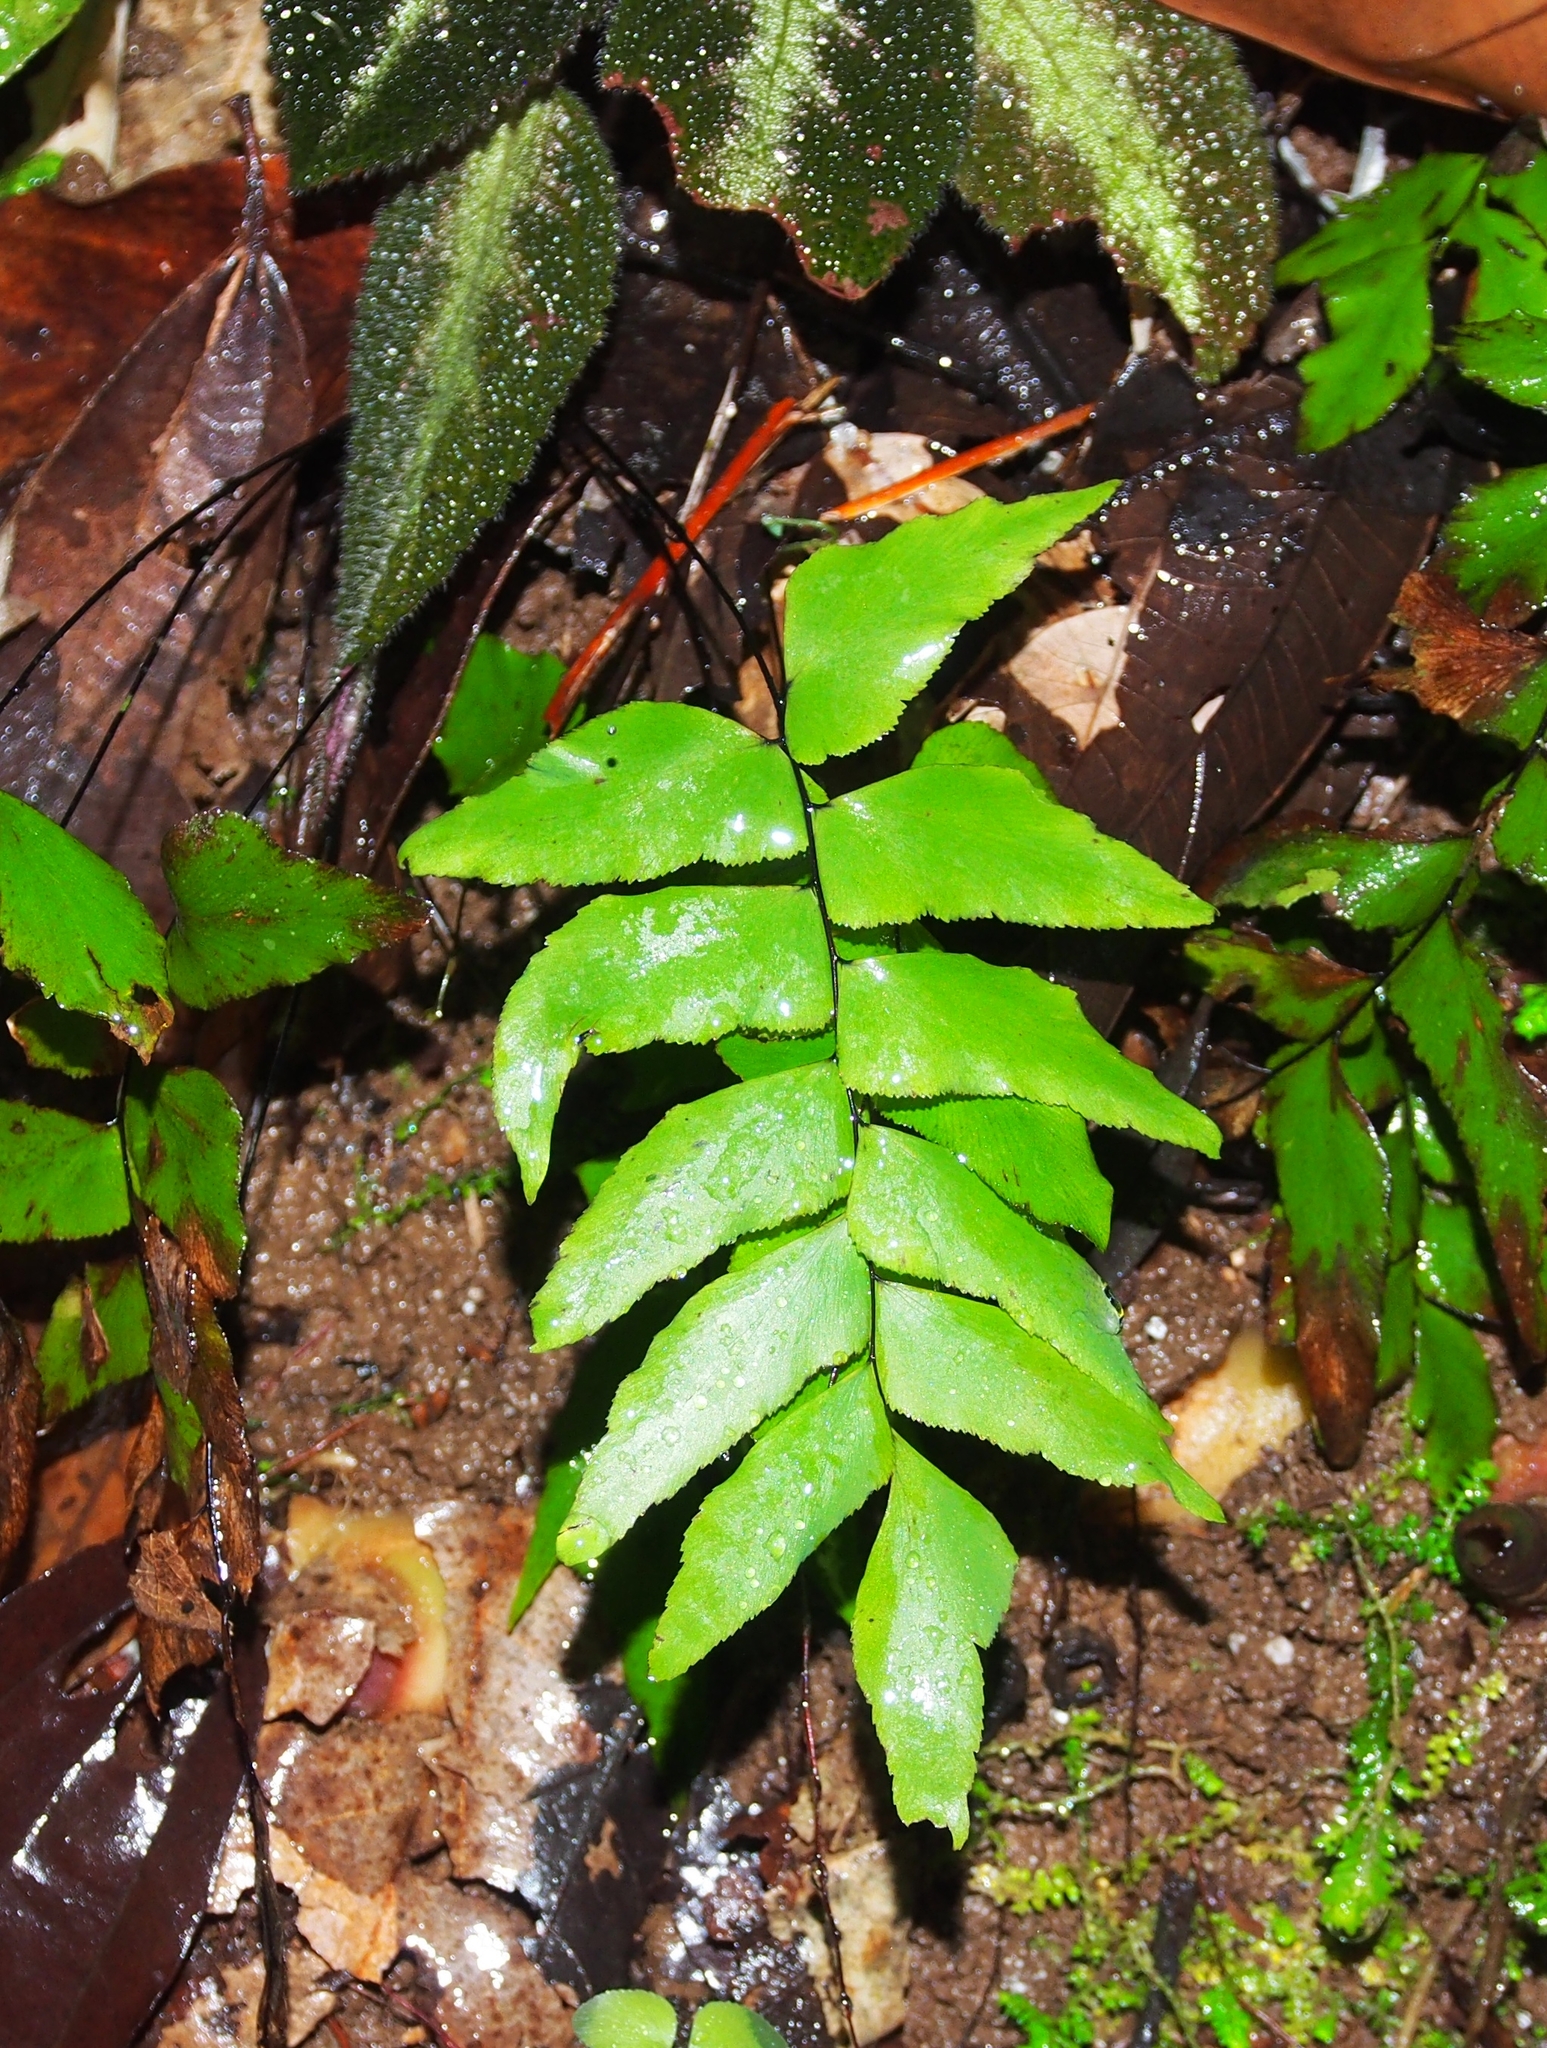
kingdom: Plantae
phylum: Tracheophyta
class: Polypodiopsida
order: Polypodiales
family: Pteridaceae
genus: Adiantum
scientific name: Adiantum petiolatum
